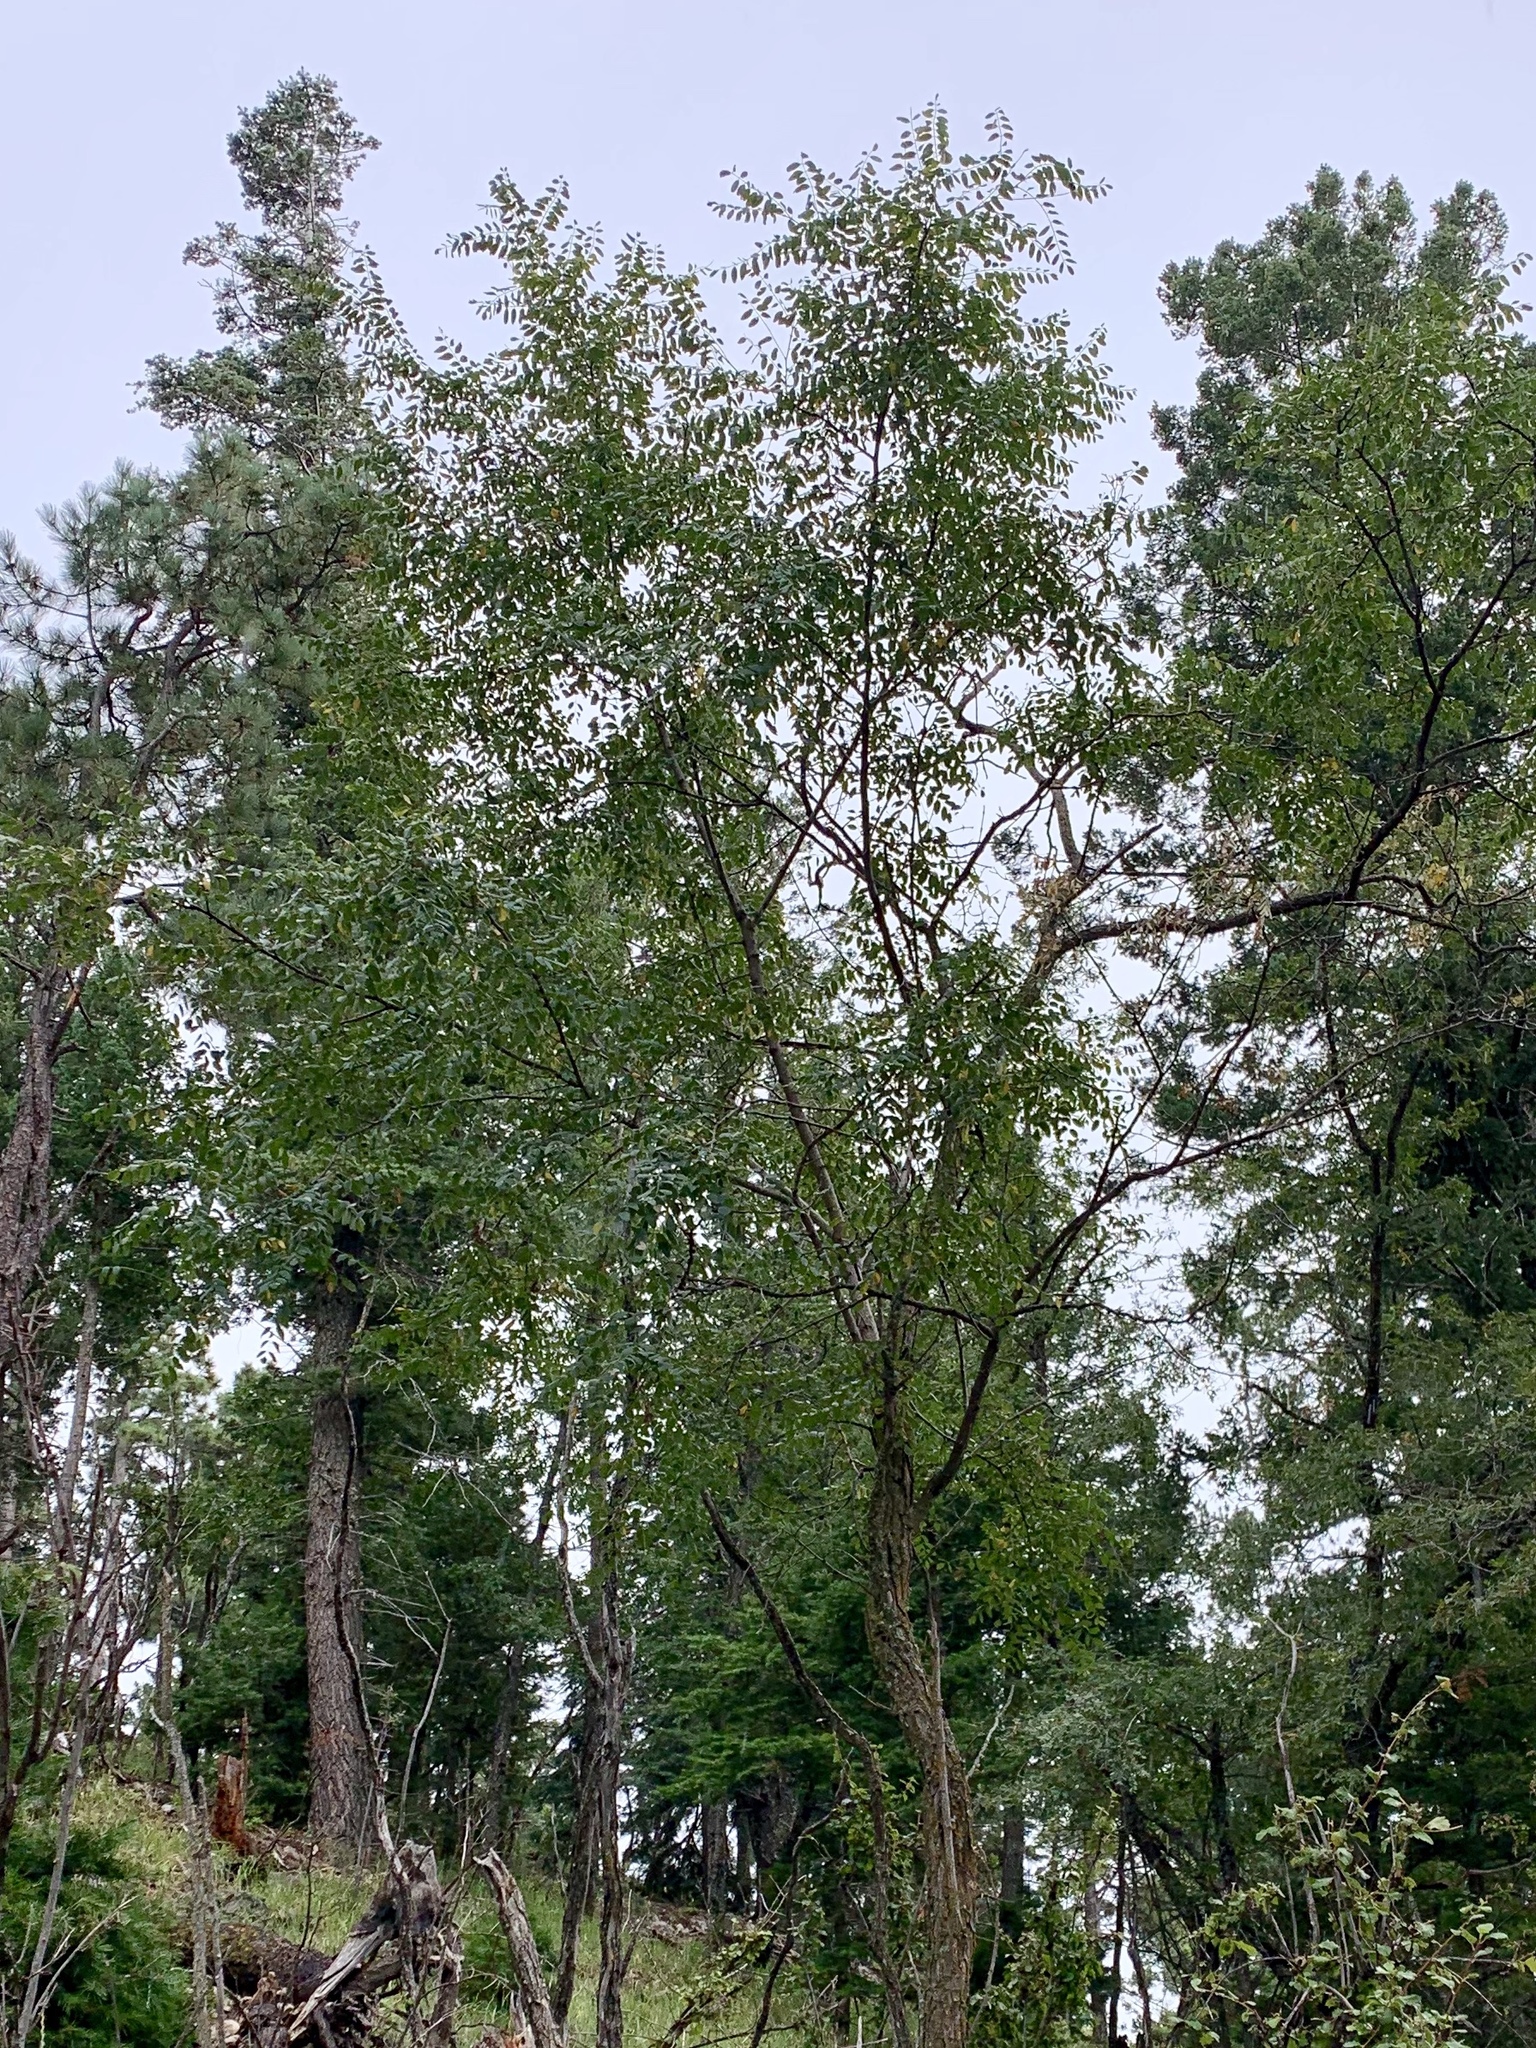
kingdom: Plantae
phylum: Tracheophyta
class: Magnoliopsida
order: Fabales
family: Fabaceae
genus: Robinia
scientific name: Robinia neomexicana
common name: New mexico locust
